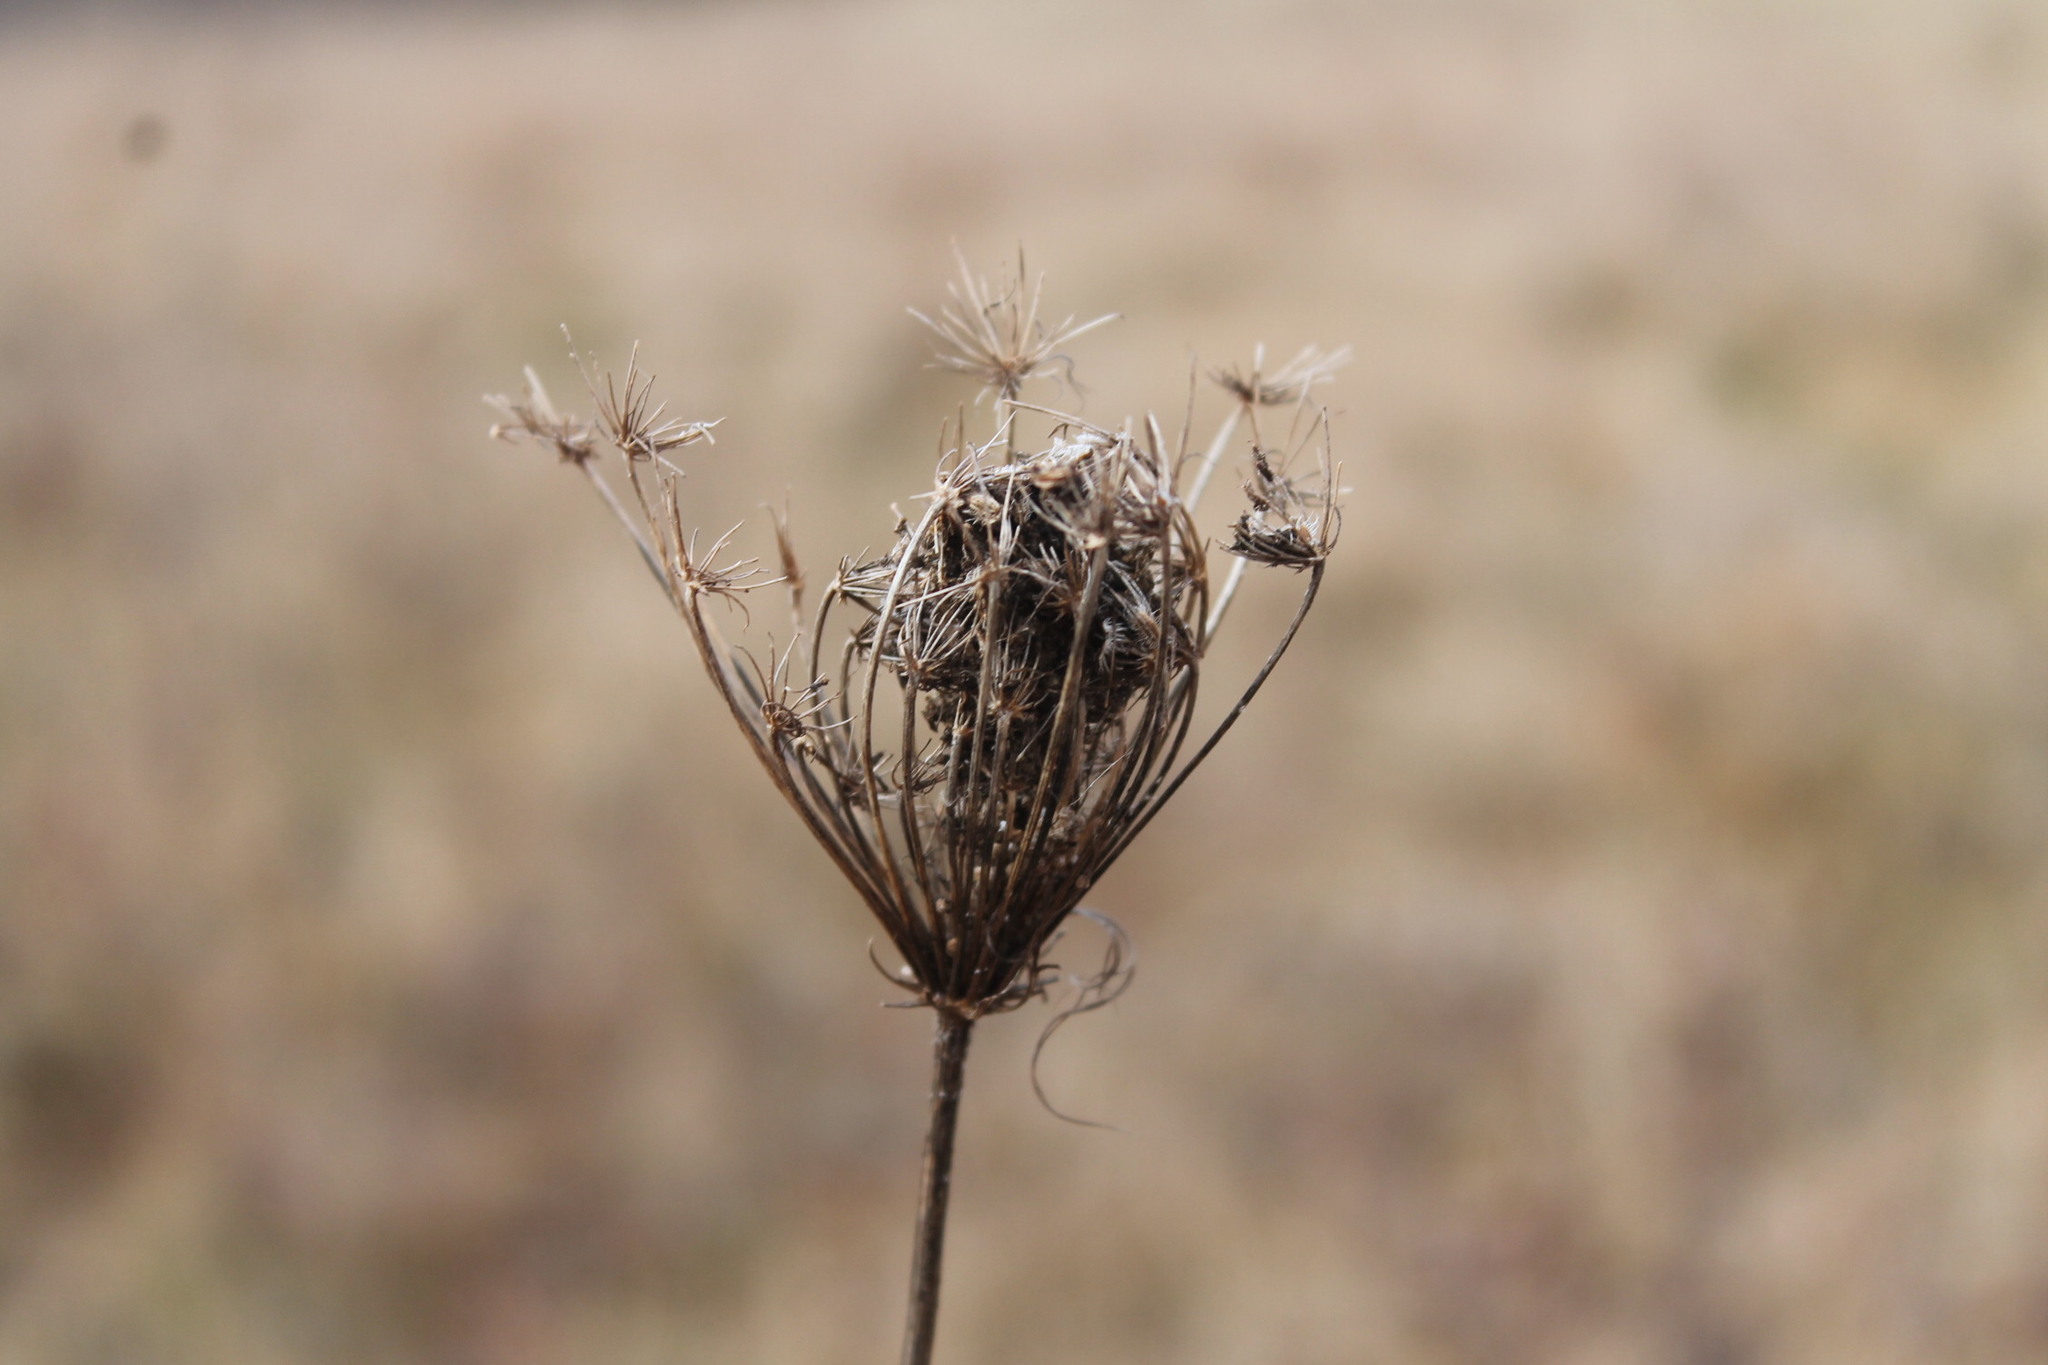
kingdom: Plantae
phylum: Tracheophyta
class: Magnoliopsida
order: Apiales
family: Apiaceae
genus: Daucus
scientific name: Daucus carota
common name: Wild carrot
